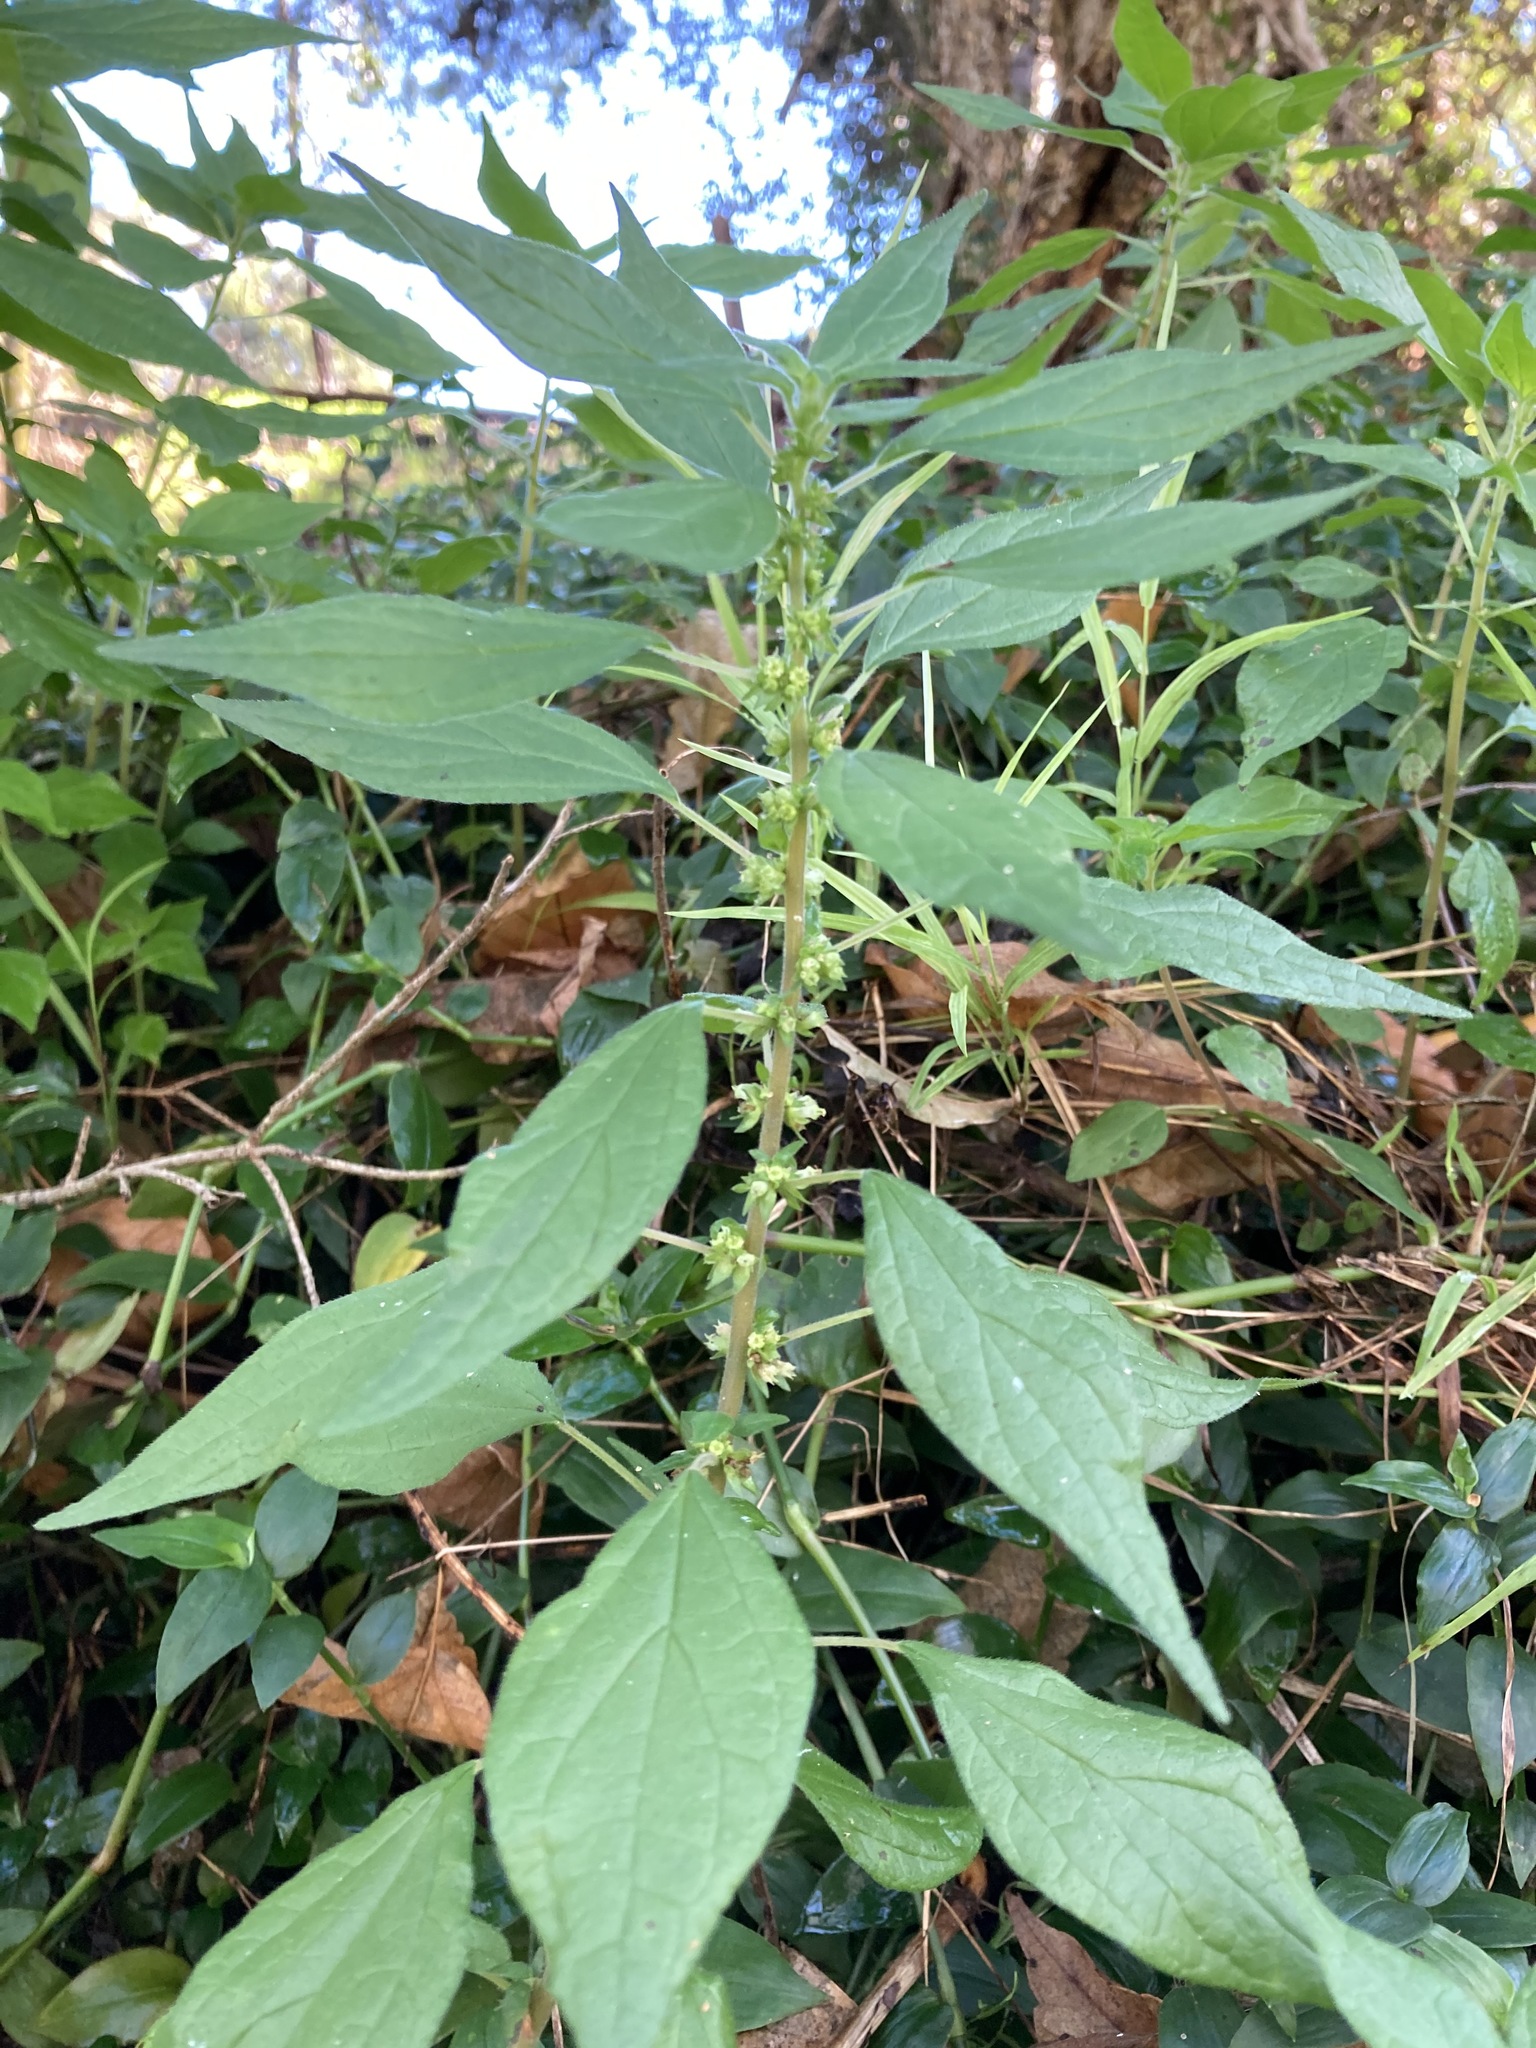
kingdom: Plantae
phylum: Tracheophyta
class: Magnoliopsida
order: Rosales
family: Urticaceae
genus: Parietaria
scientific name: Parietaria judaica
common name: Pellitory-of-the-wall
